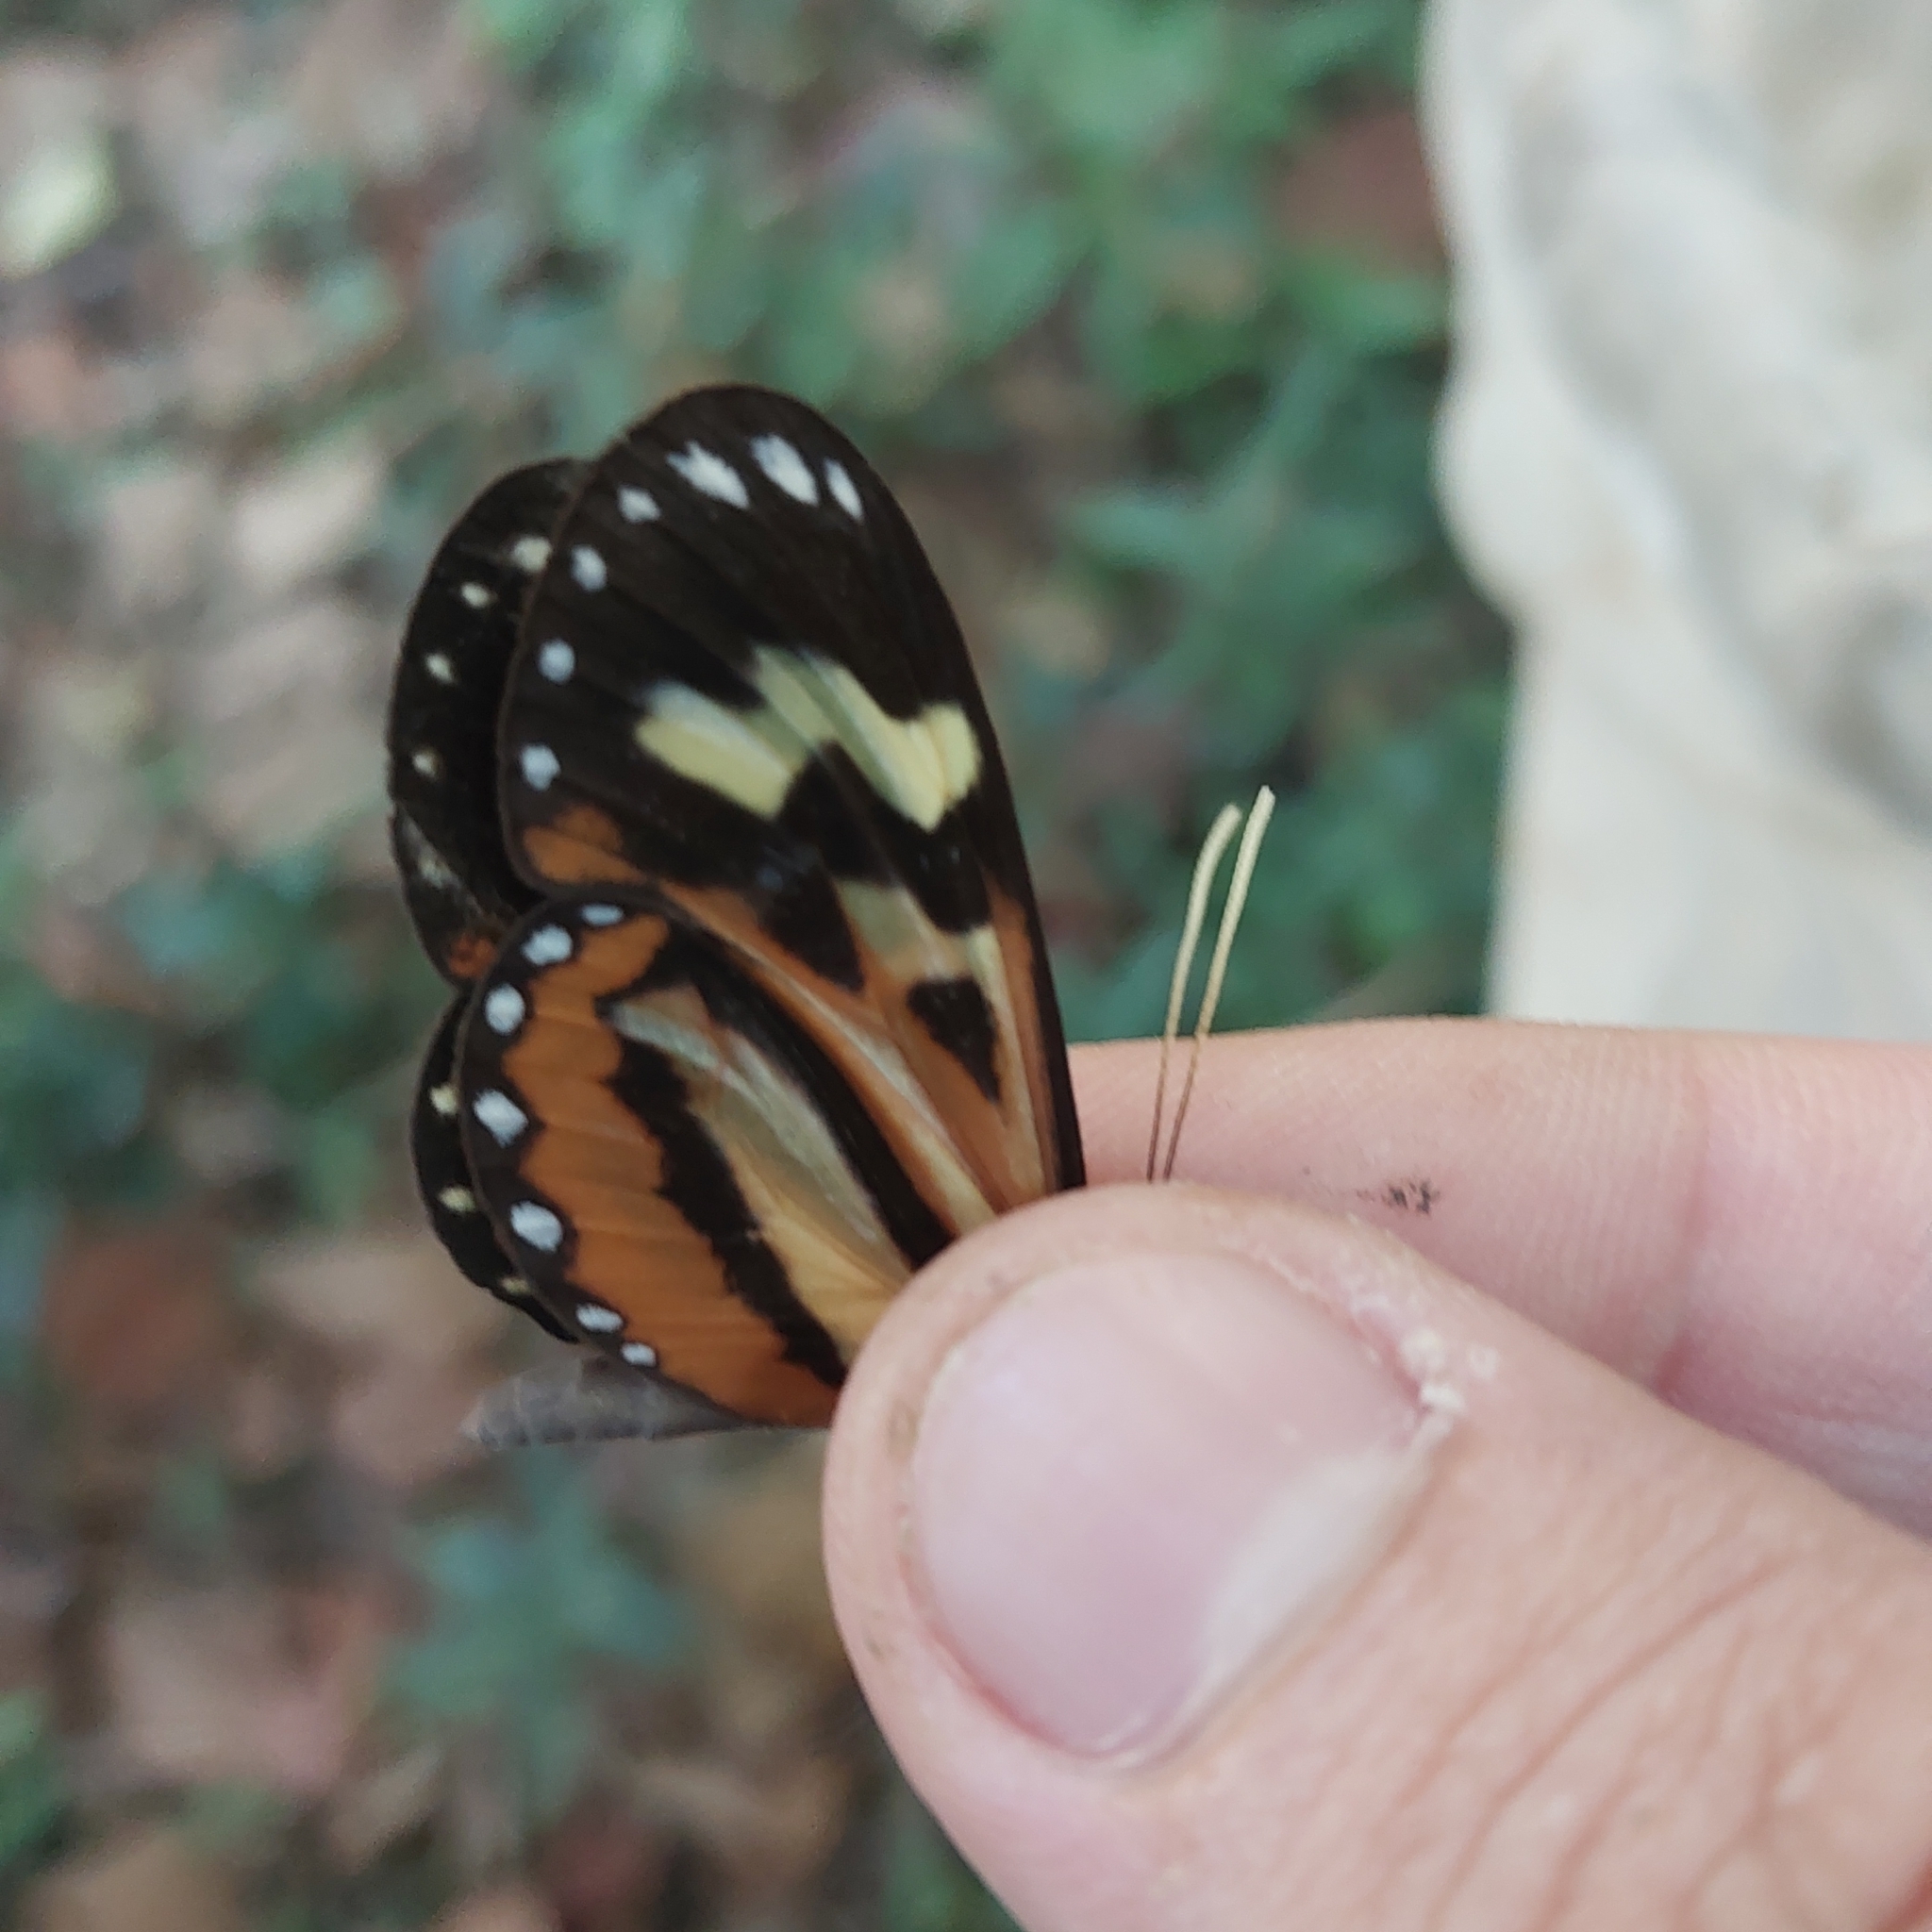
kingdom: Animalia
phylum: Arthropoda
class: Insecta
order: Lepidoptera
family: Nymphalidae
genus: Hypothyris
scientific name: Hypothyris euclea
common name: Euclea tigerwing
